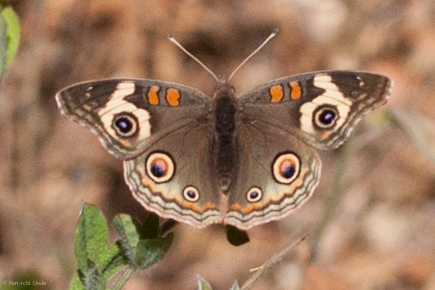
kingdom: Animalia
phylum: Arthropoda
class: Insecta
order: Lepidoptera
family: Nymphalidae
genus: Junonia
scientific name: Junonia grisea
